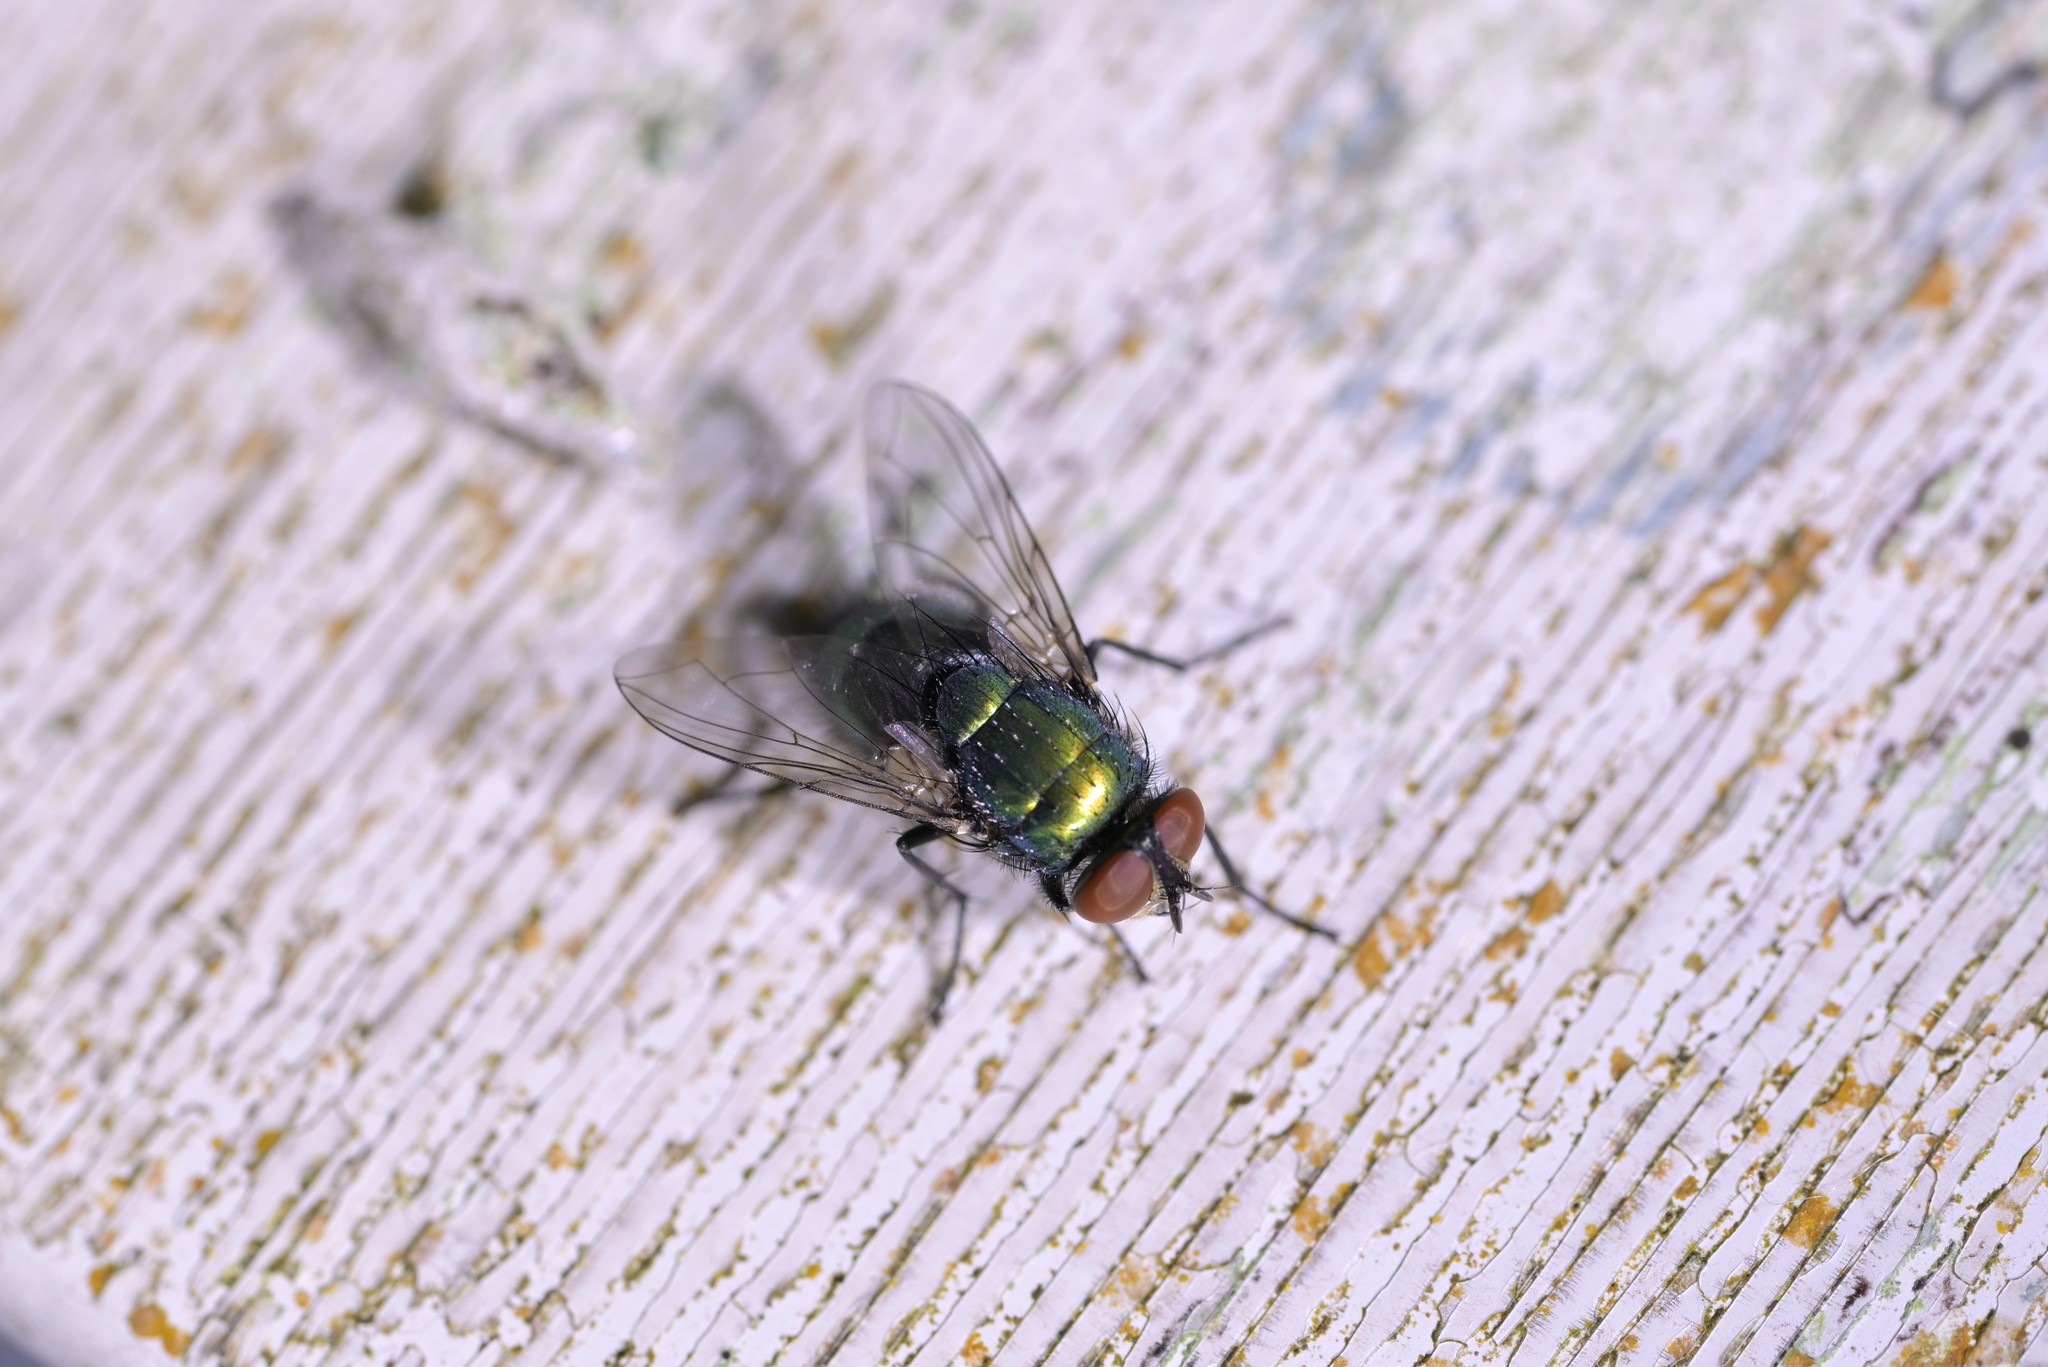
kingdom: Animalia
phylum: Arthropoda
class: Insecta
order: Diptera
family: Calliphoridae
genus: Lucilia
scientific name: Lucilia sericata
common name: Blow fly
